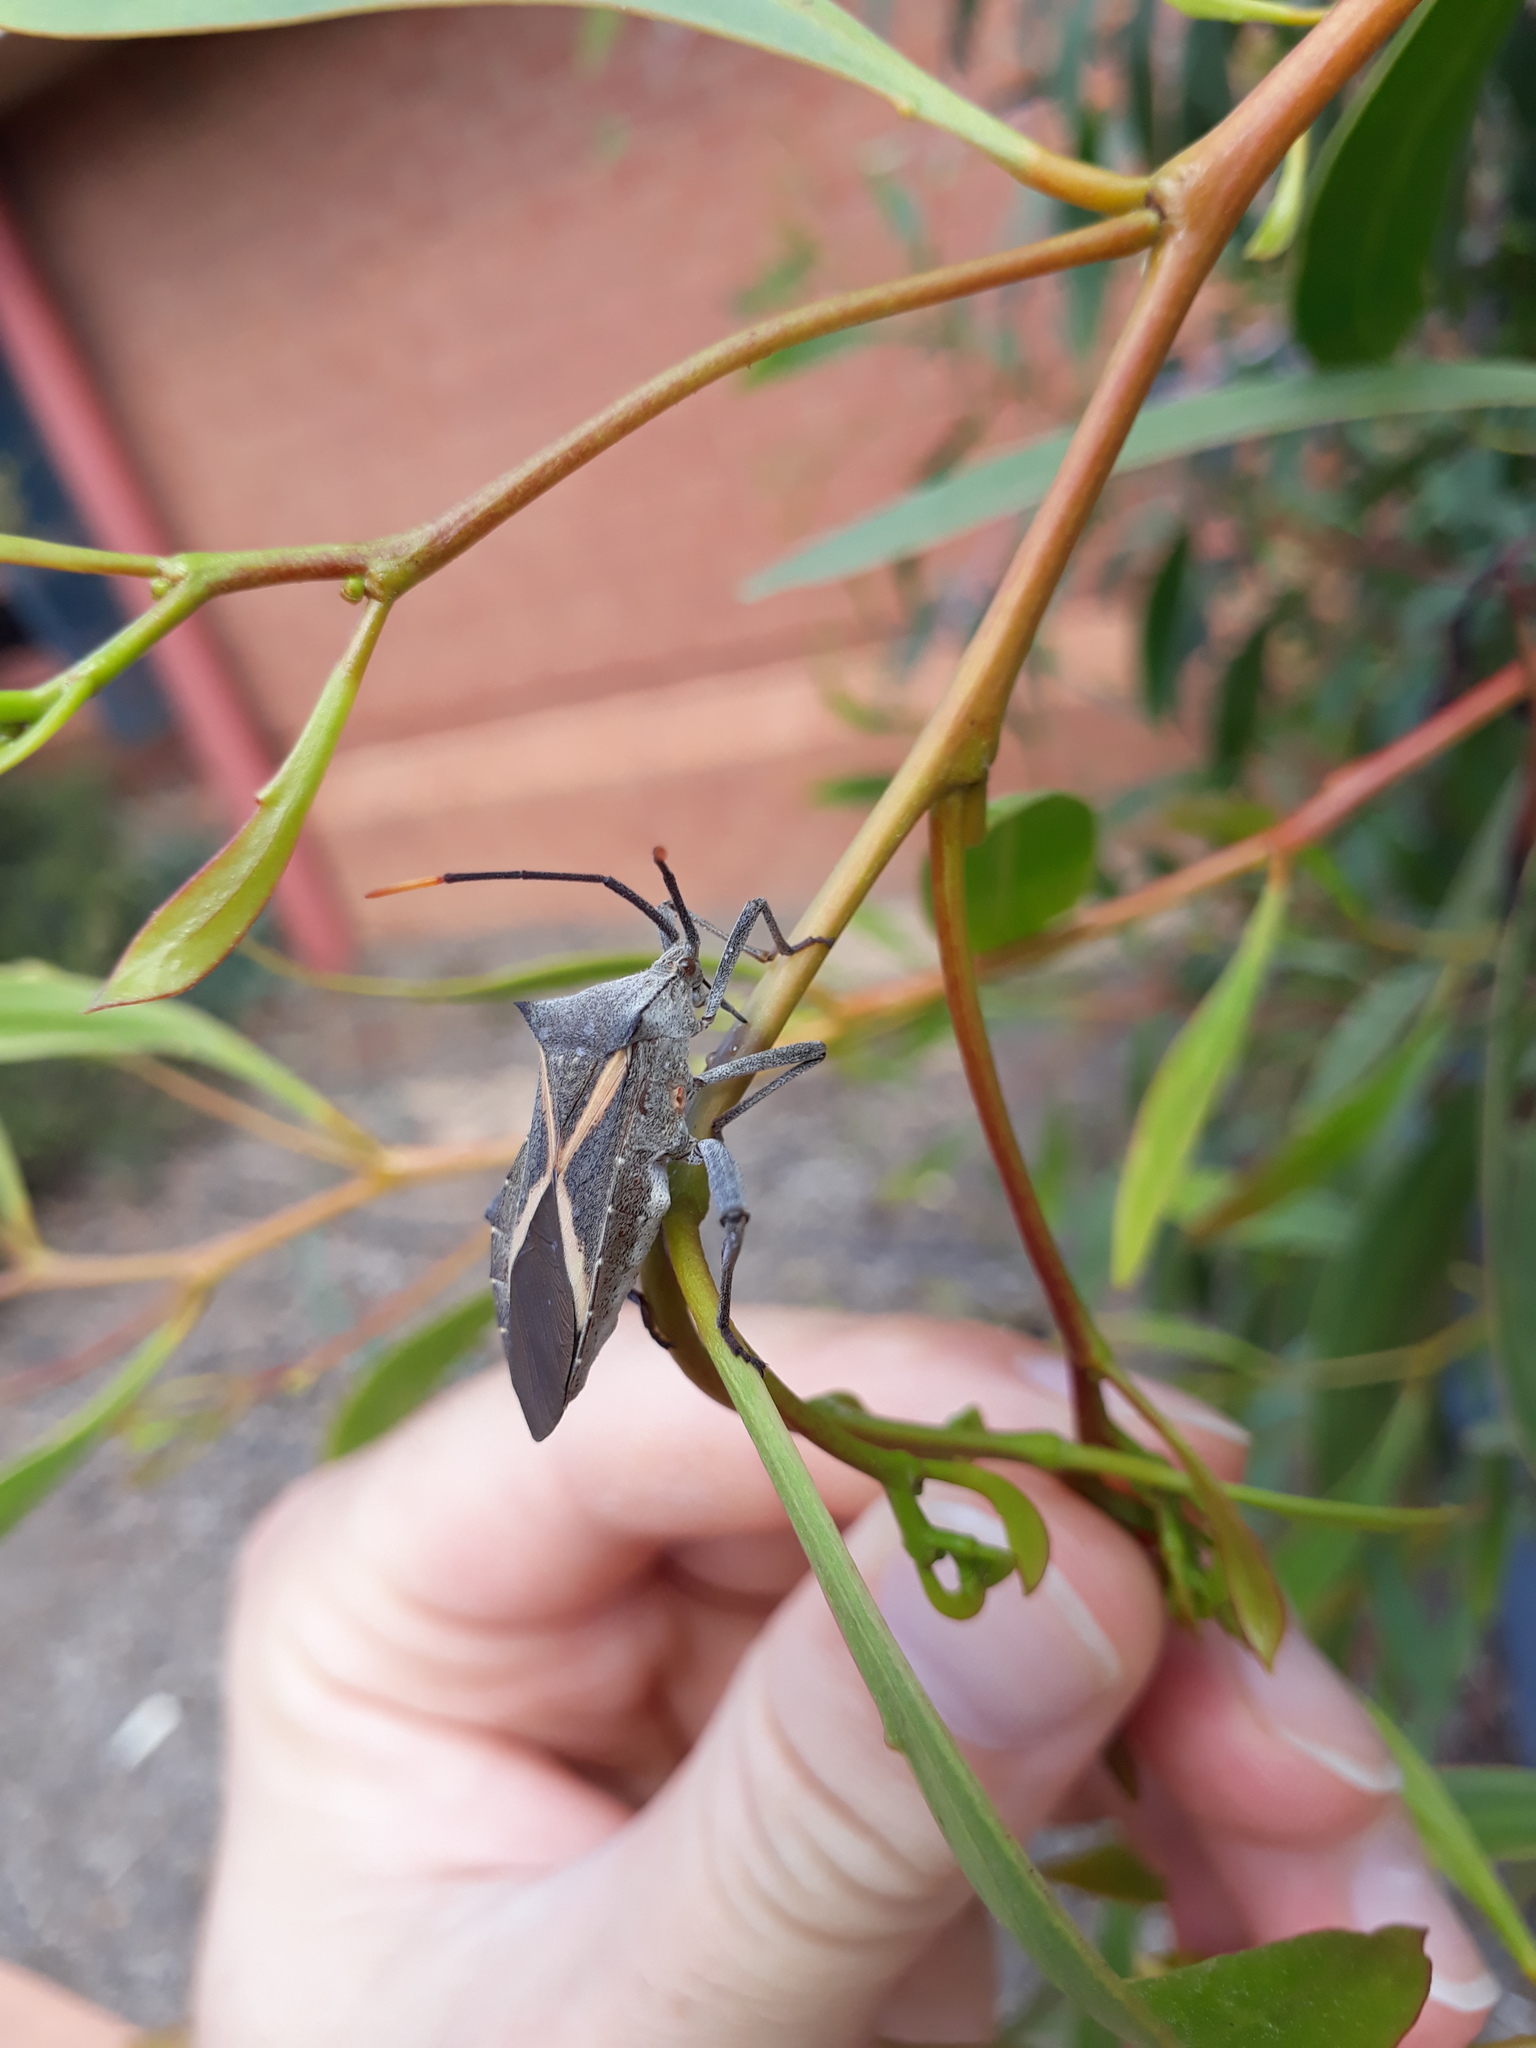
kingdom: Animalia
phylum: Arthropoda
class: Insecta
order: Hemiptera
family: Coreidae
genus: Mictis
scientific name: Mictis profana
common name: Crusader bug
